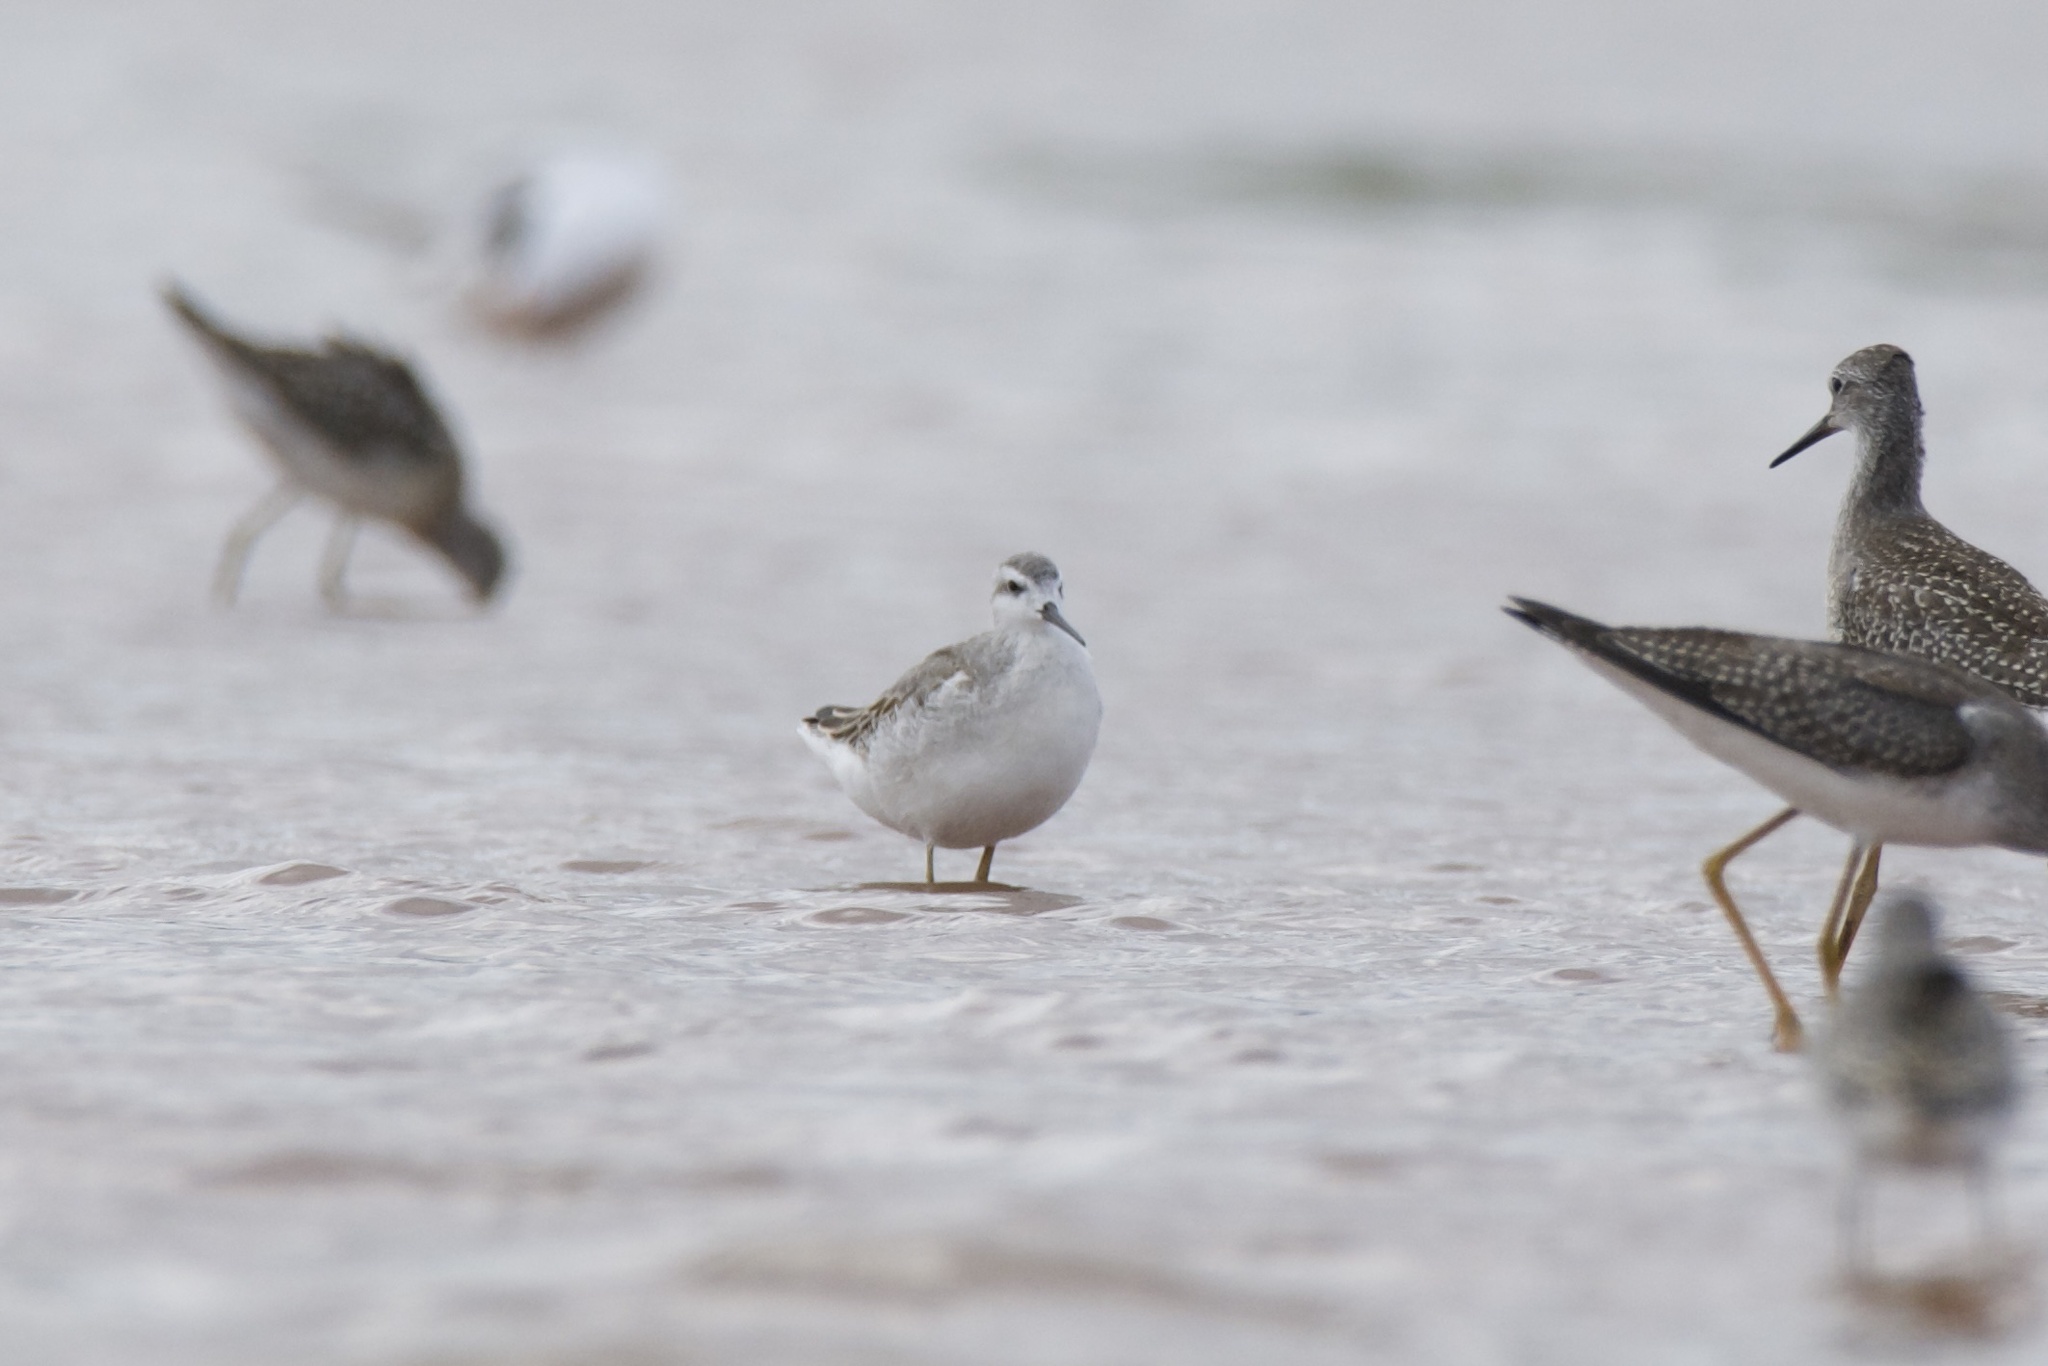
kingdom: Animalia
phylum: Chordata
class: Aves
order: Charadriiformes
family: Scolopacidae
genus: Phalaropus
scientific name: Phalaropus tricolor
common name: Wilson's phalarope
